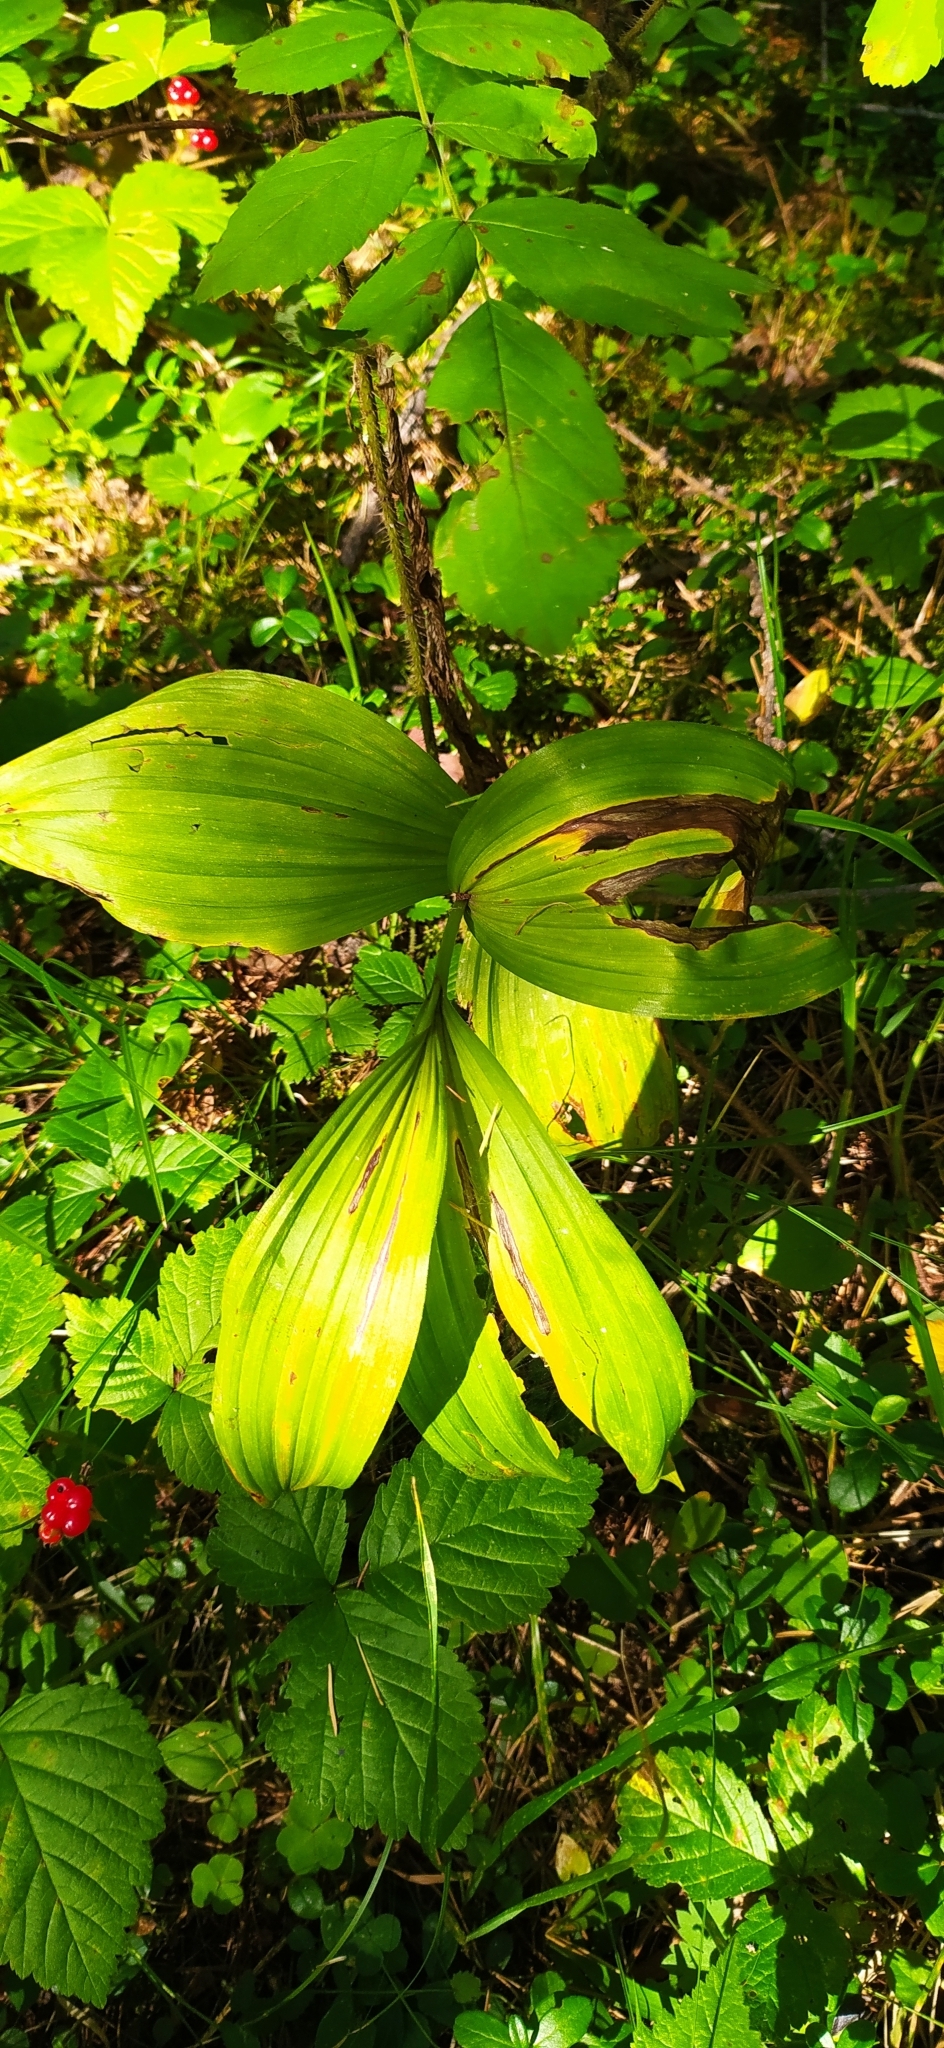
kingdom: Plantae
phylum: Tracheophyta
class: Liliopsida
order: Liliales
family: Melanthiaceae
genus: Veratrum
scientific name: Veratrum lobelianum
